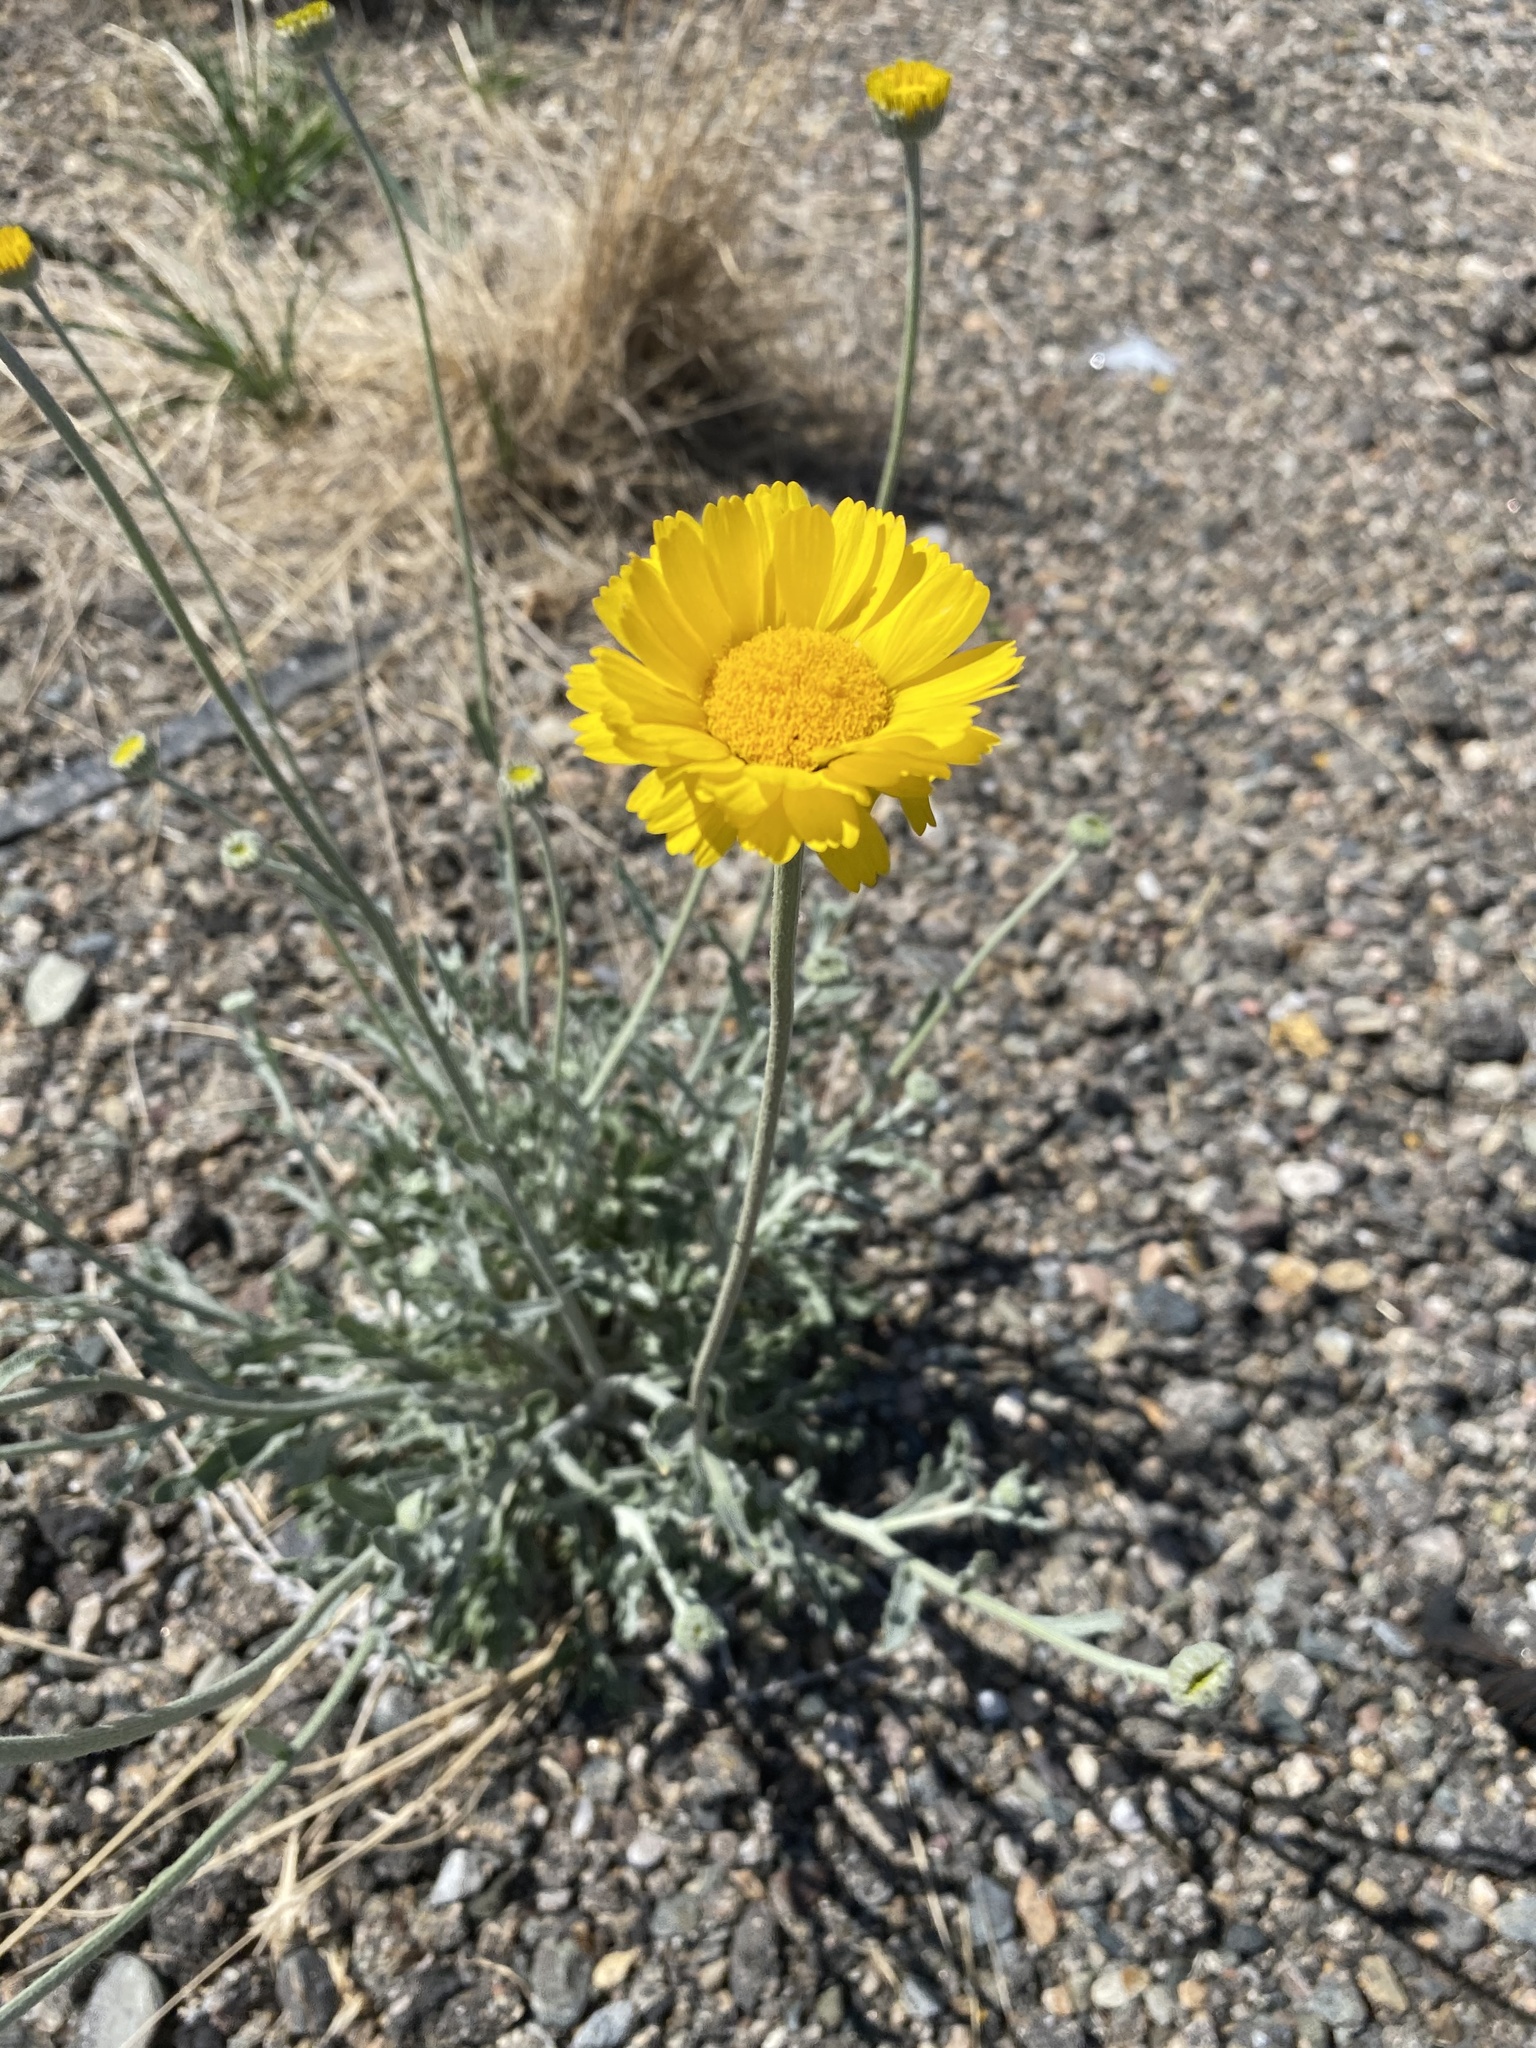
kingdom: Plantae
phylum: Tracheophyta
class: Magnoliopsida
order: Asterales
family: Asteraceae
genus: Baileya
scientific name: Baileya multiradiata
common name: Desert-marigold
